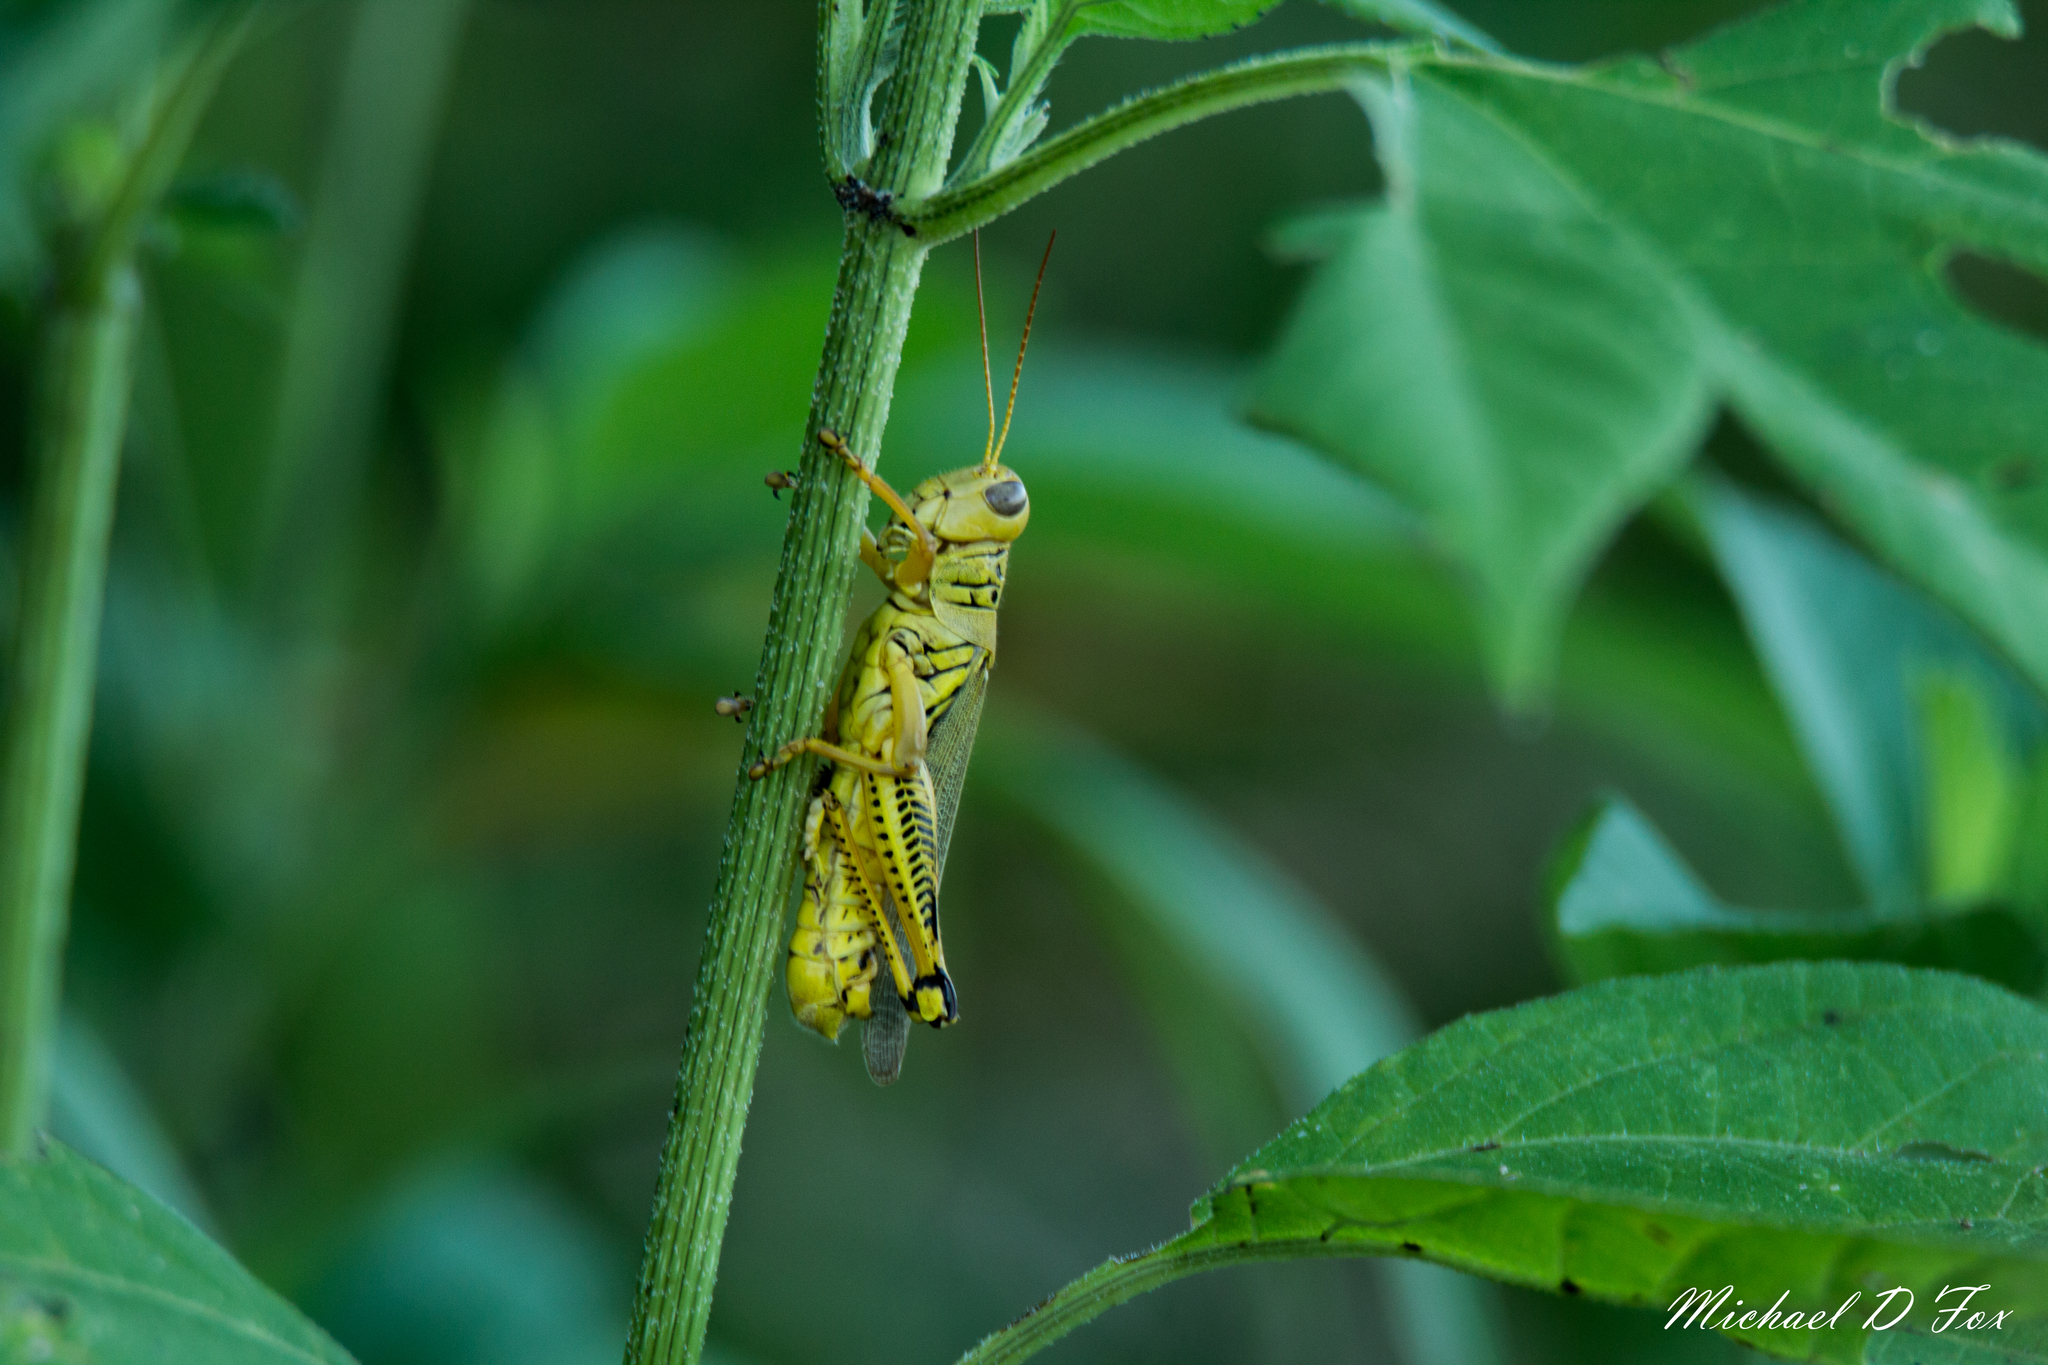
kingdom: Animalia
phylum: Arthropoda
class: Insecta
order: Orthoptera
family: Acrididae
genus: Melanoplus
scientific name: Melanoplus differentialis
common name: Differential grasshopper
